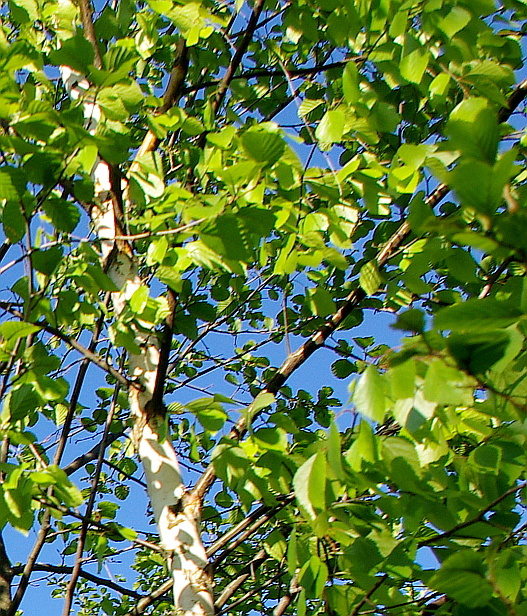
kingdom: Plantae
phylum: Tracheophyta
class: Magnoliopsida
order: Fagales
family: Betulaceae
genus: Betula
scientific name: Betula pendula
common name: Silver birch
